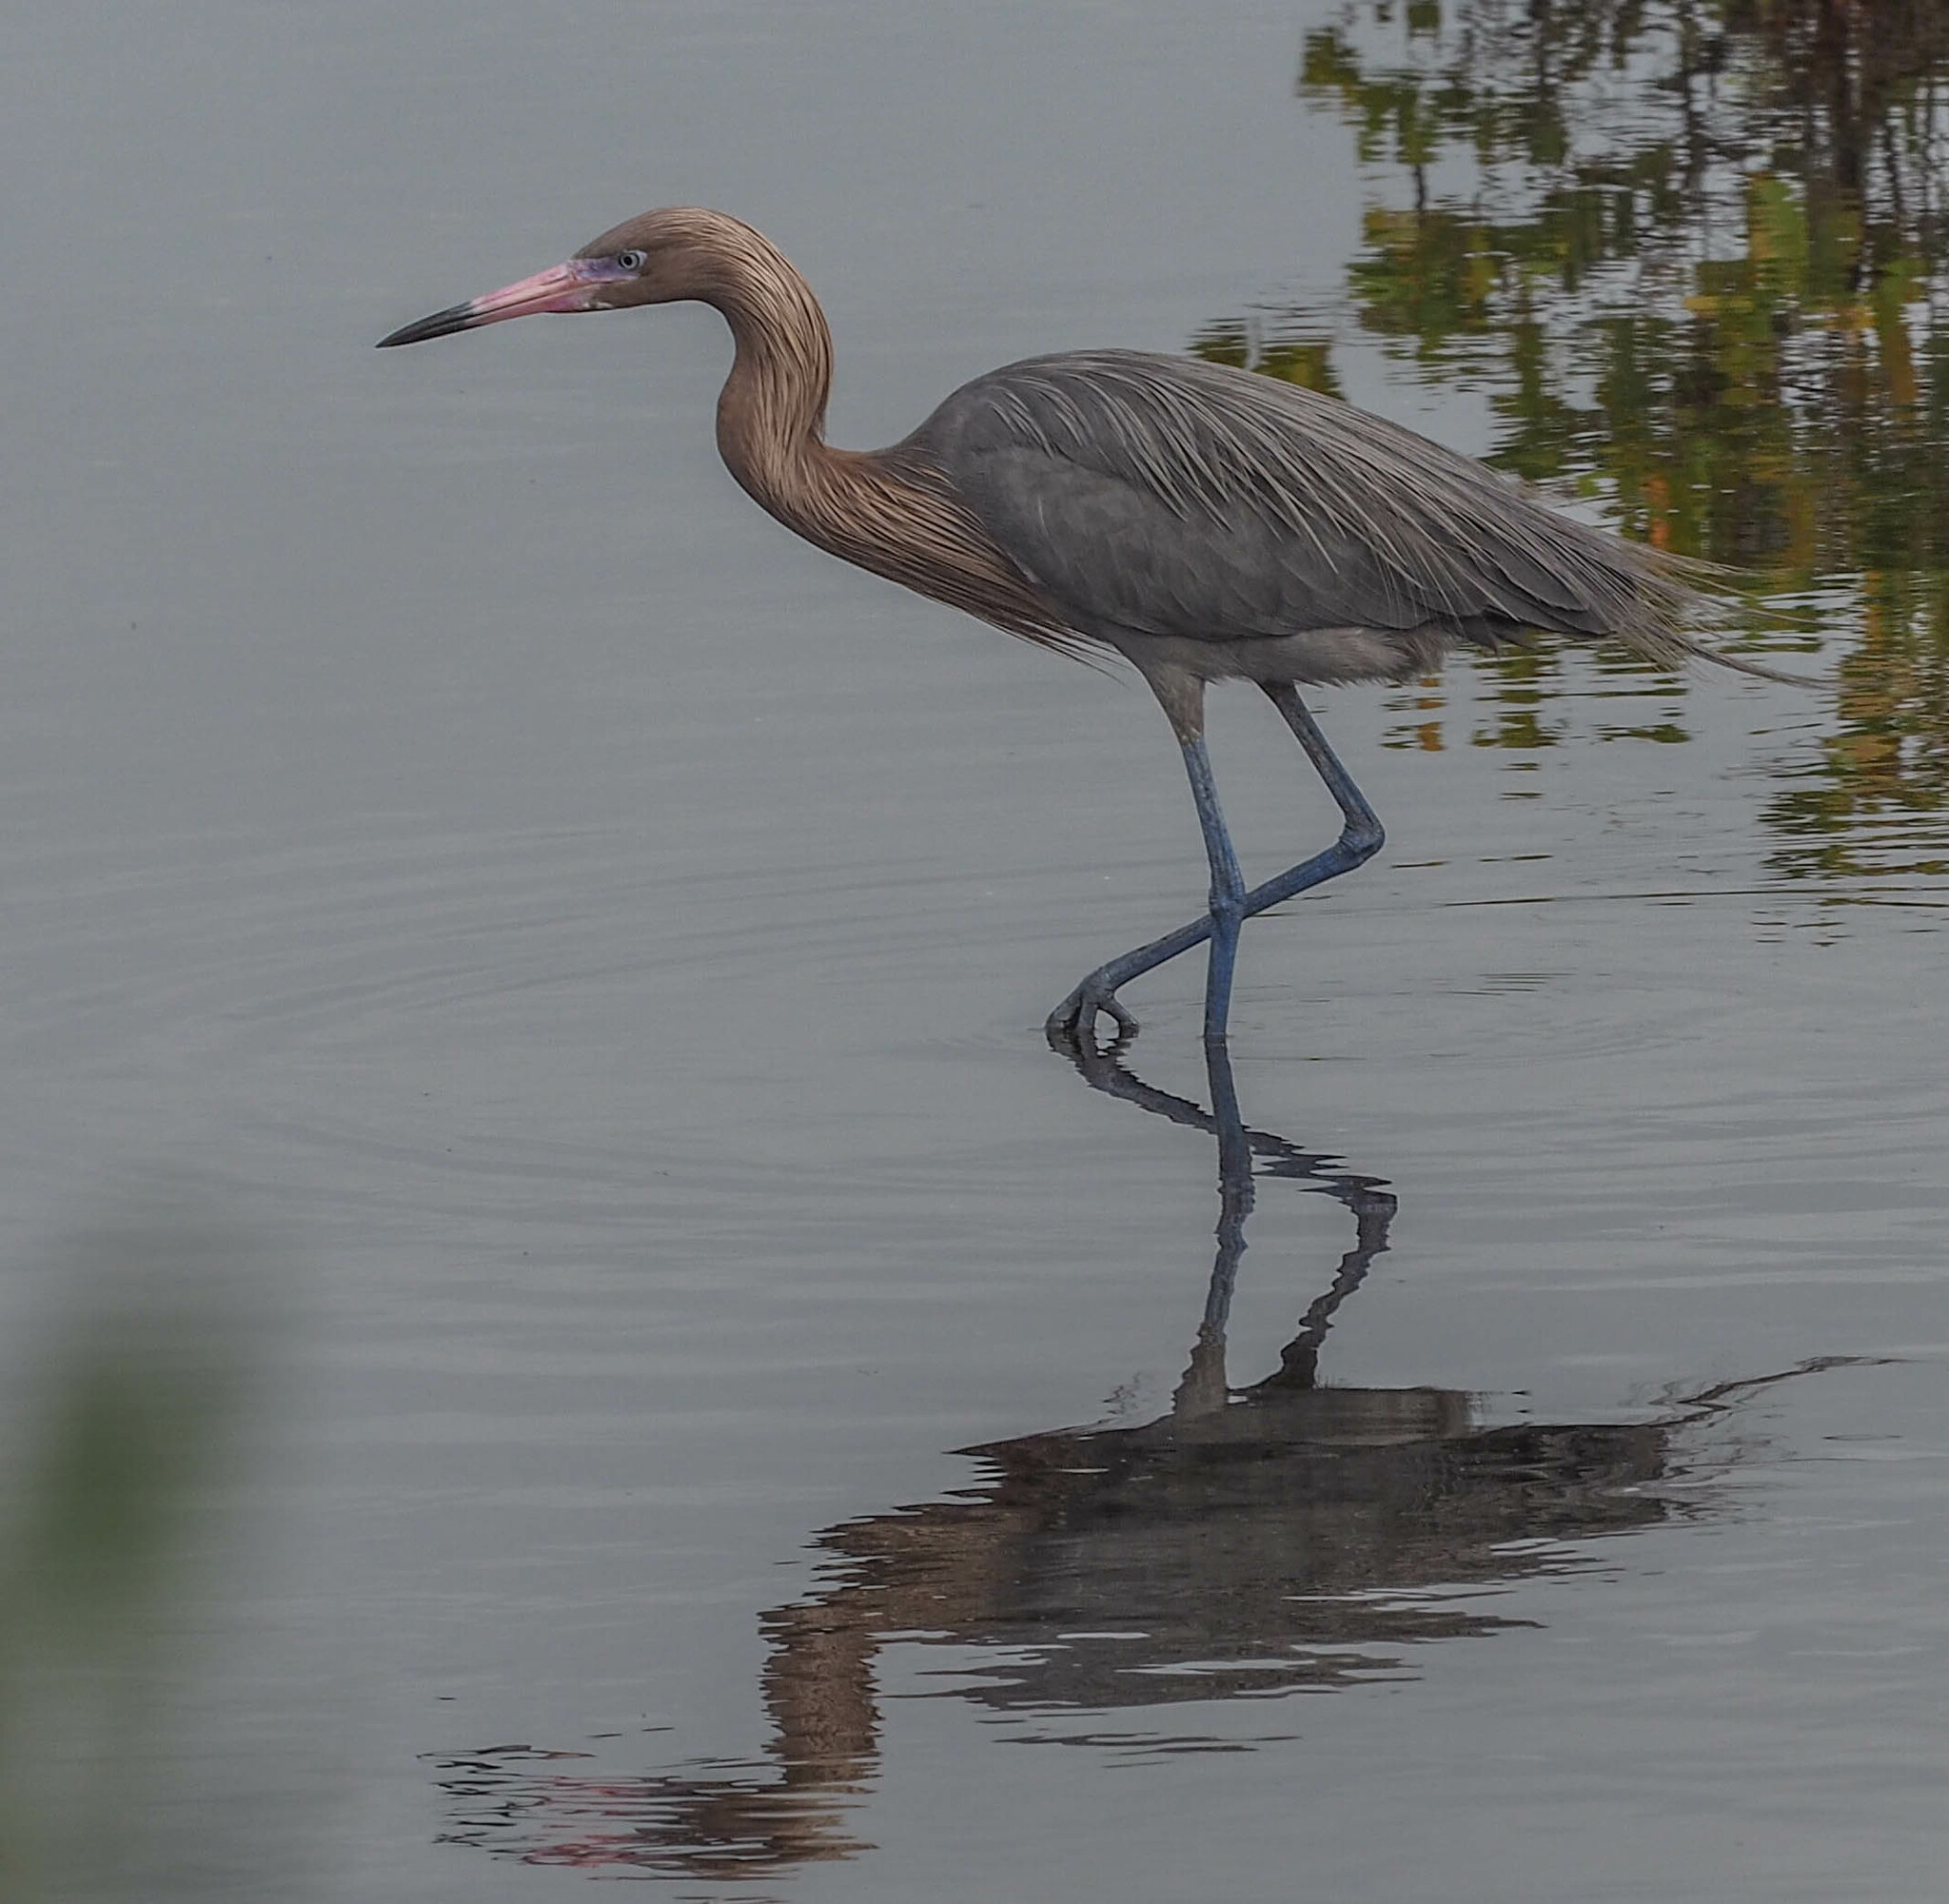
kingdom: Animalia
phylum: Chordata
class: Aves
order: Pelecaniformes
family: Ardeidae
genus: Egretta
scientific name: Egretta rufescens
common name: Reddish egret
